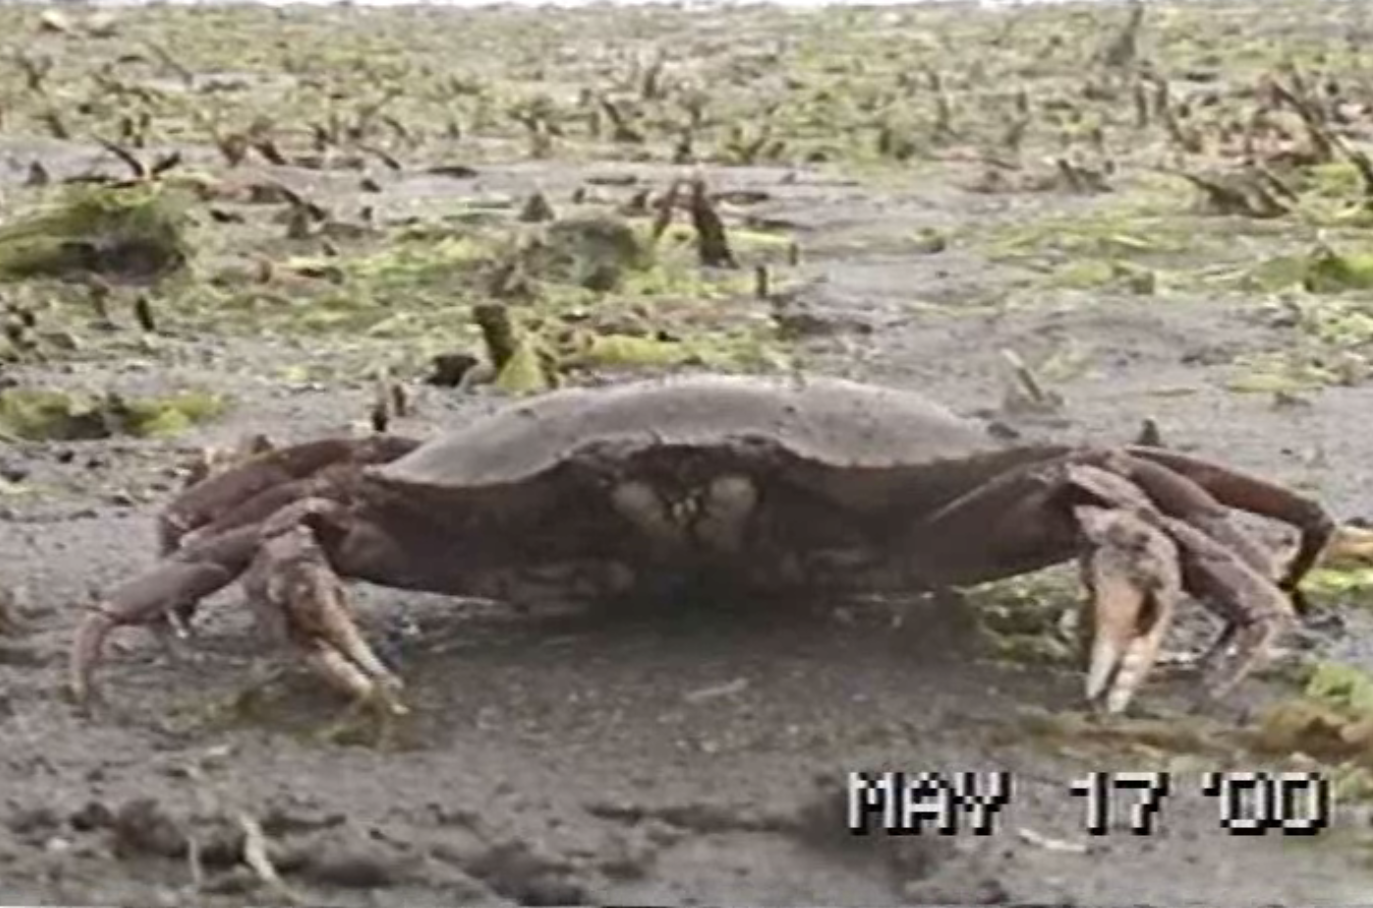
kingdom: Animalia
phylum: Arthropoda
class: Malacostraca
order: Decapoda
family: Cancridae
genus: Metacarcinus
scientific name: Metacarcinus magister
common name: Californian crab
